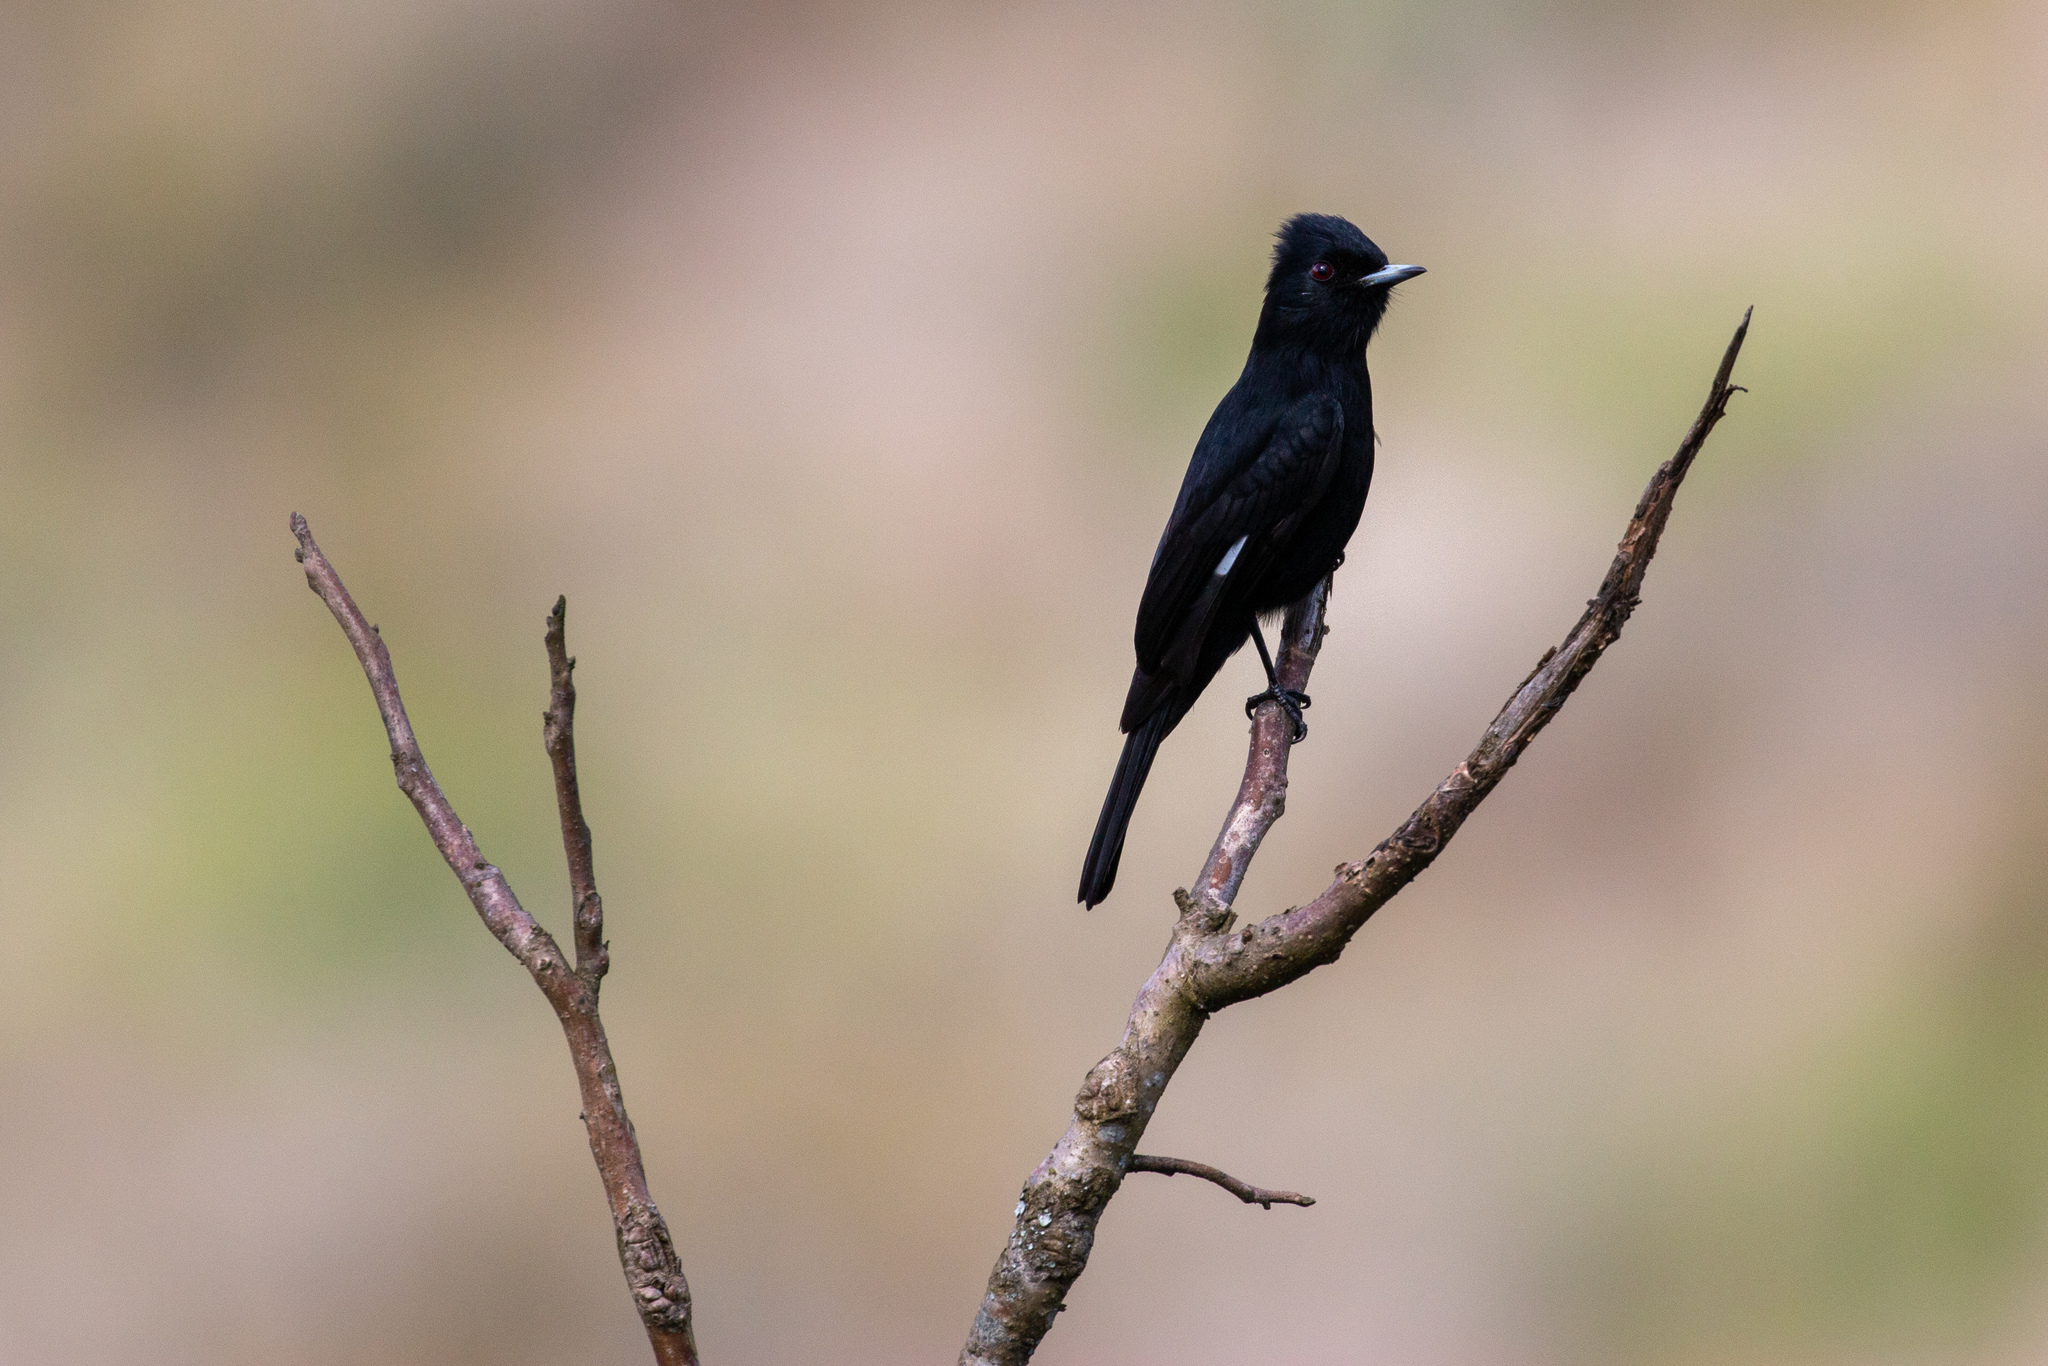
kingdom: Animalia
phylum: Chordata
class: Aves
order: Passeriformes
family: Tyrannidae
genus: Knipolegus
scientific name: Knipolegus nigerrimus
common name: Velvety black tyrant
